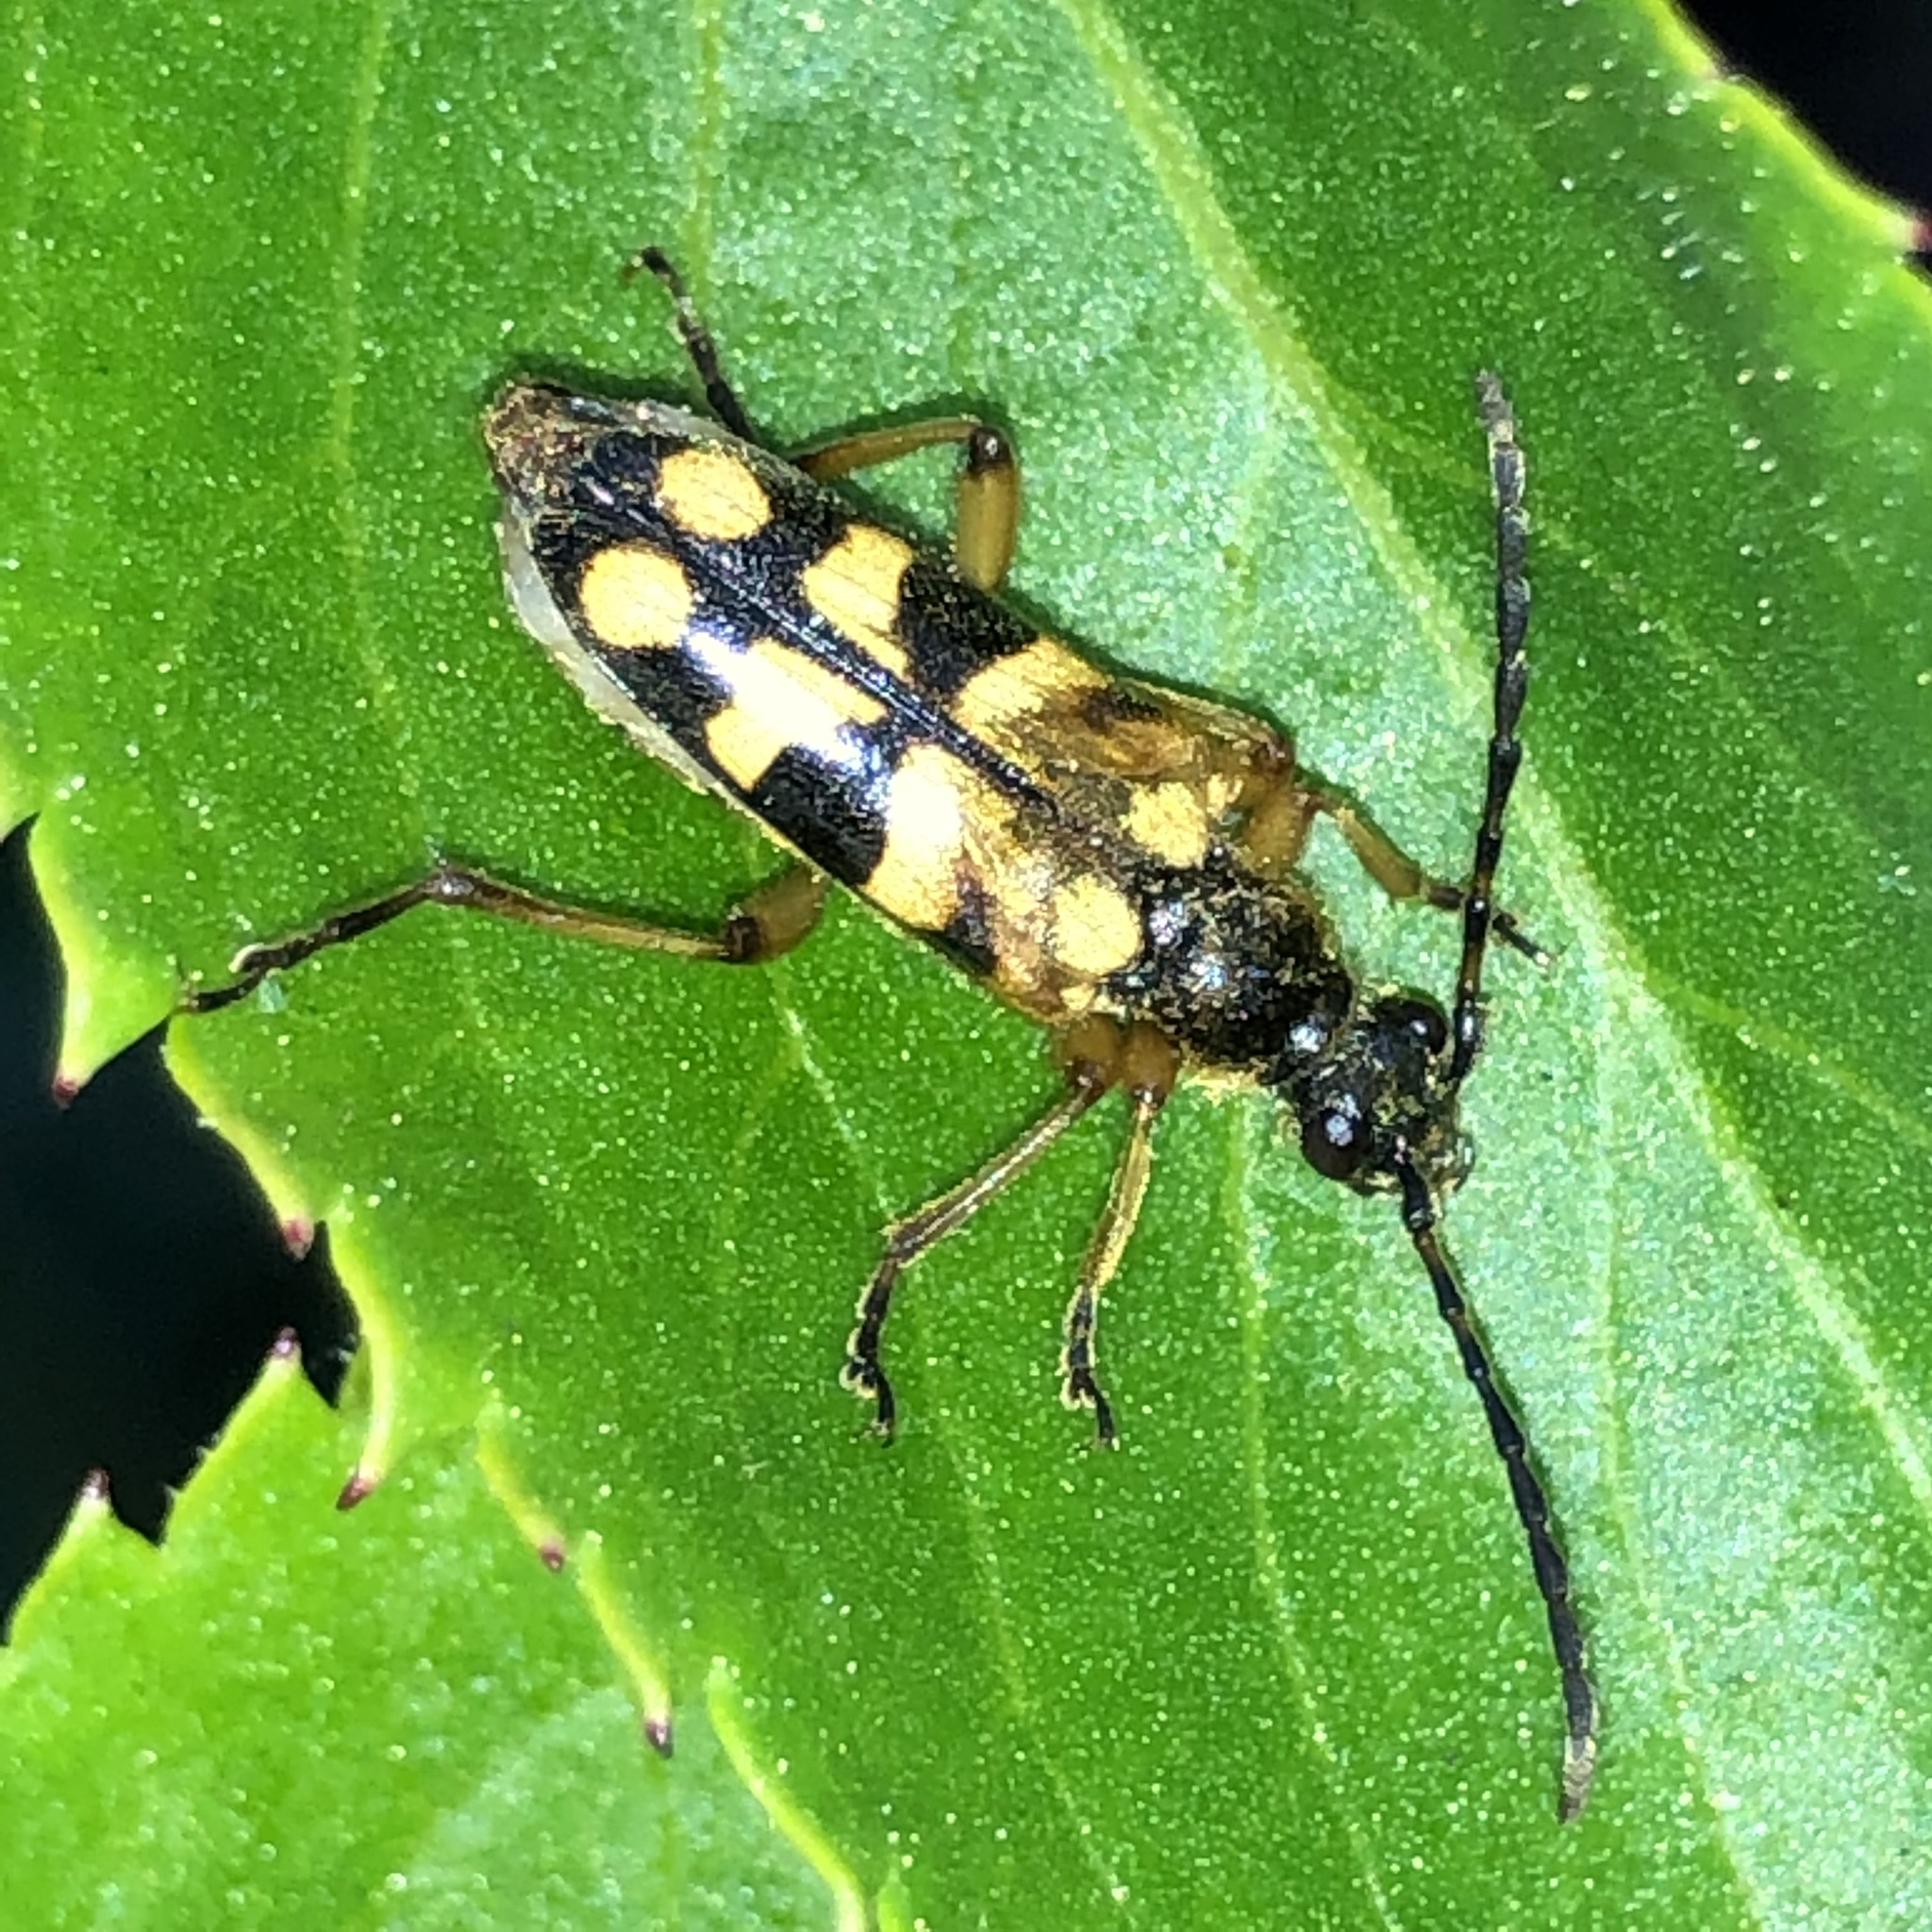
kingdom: Animalia
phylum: Arthropoda
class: Insecta
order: Coleoptera
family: Cerambycidae
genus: Xestoleptura
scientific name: Xestoleptura crassipes
